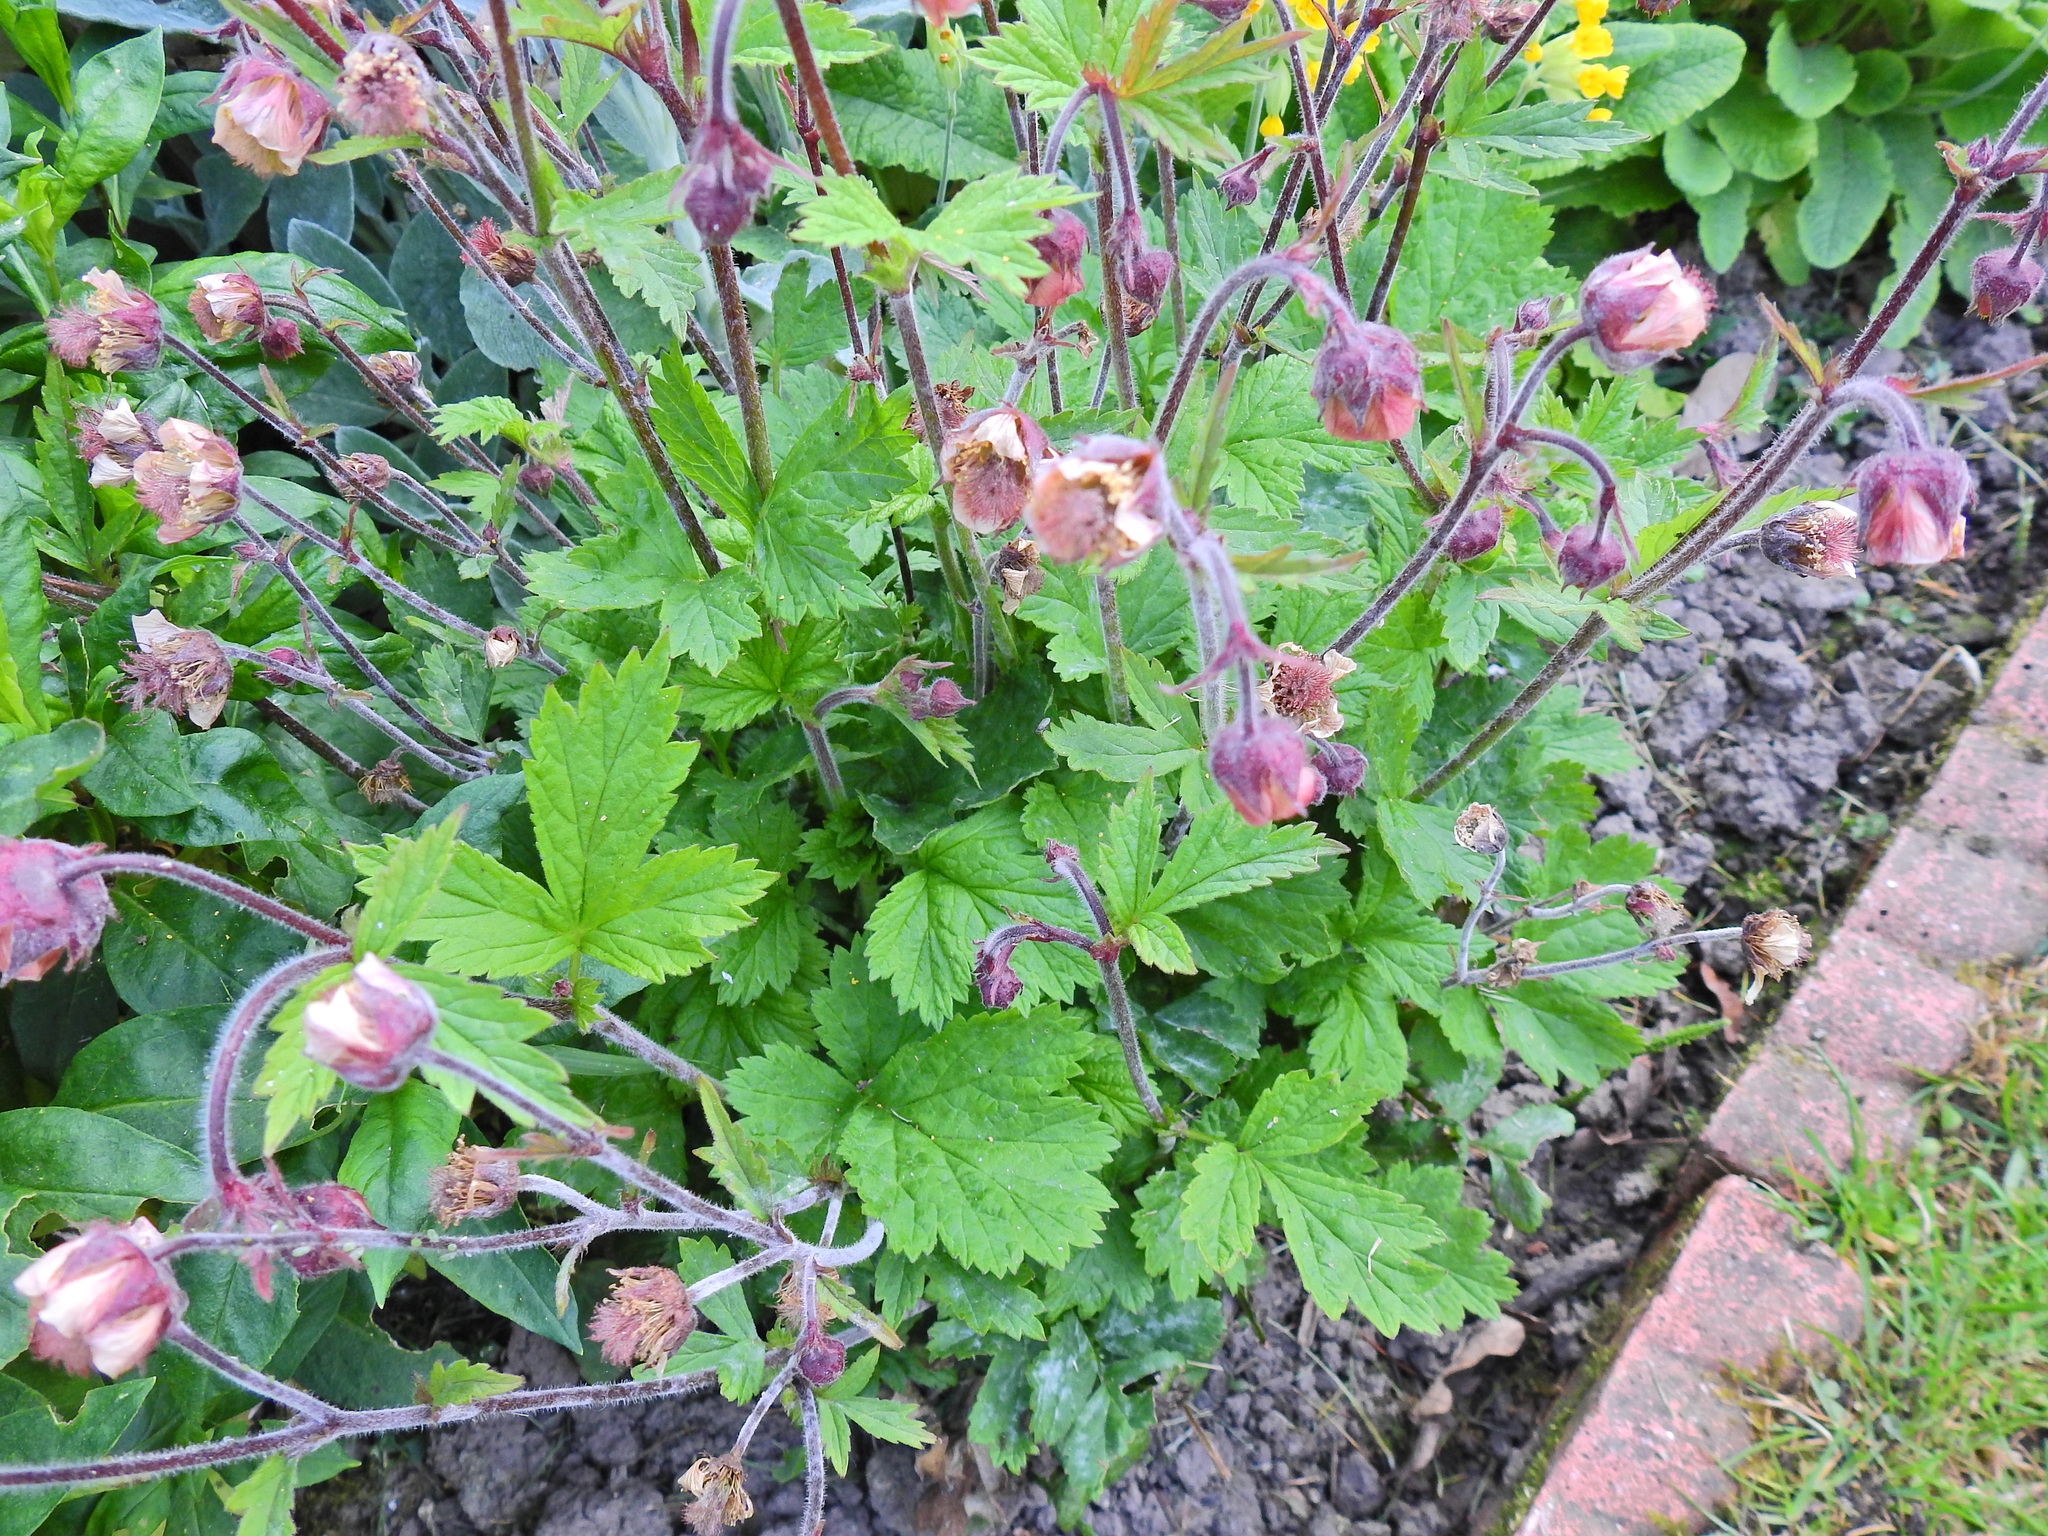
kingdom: Plantae
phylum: Tracheophyta
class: Magnoliopsida
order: Rosales
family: Rosaceae
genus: Geum
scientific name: Geum rivale
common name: Water avens
